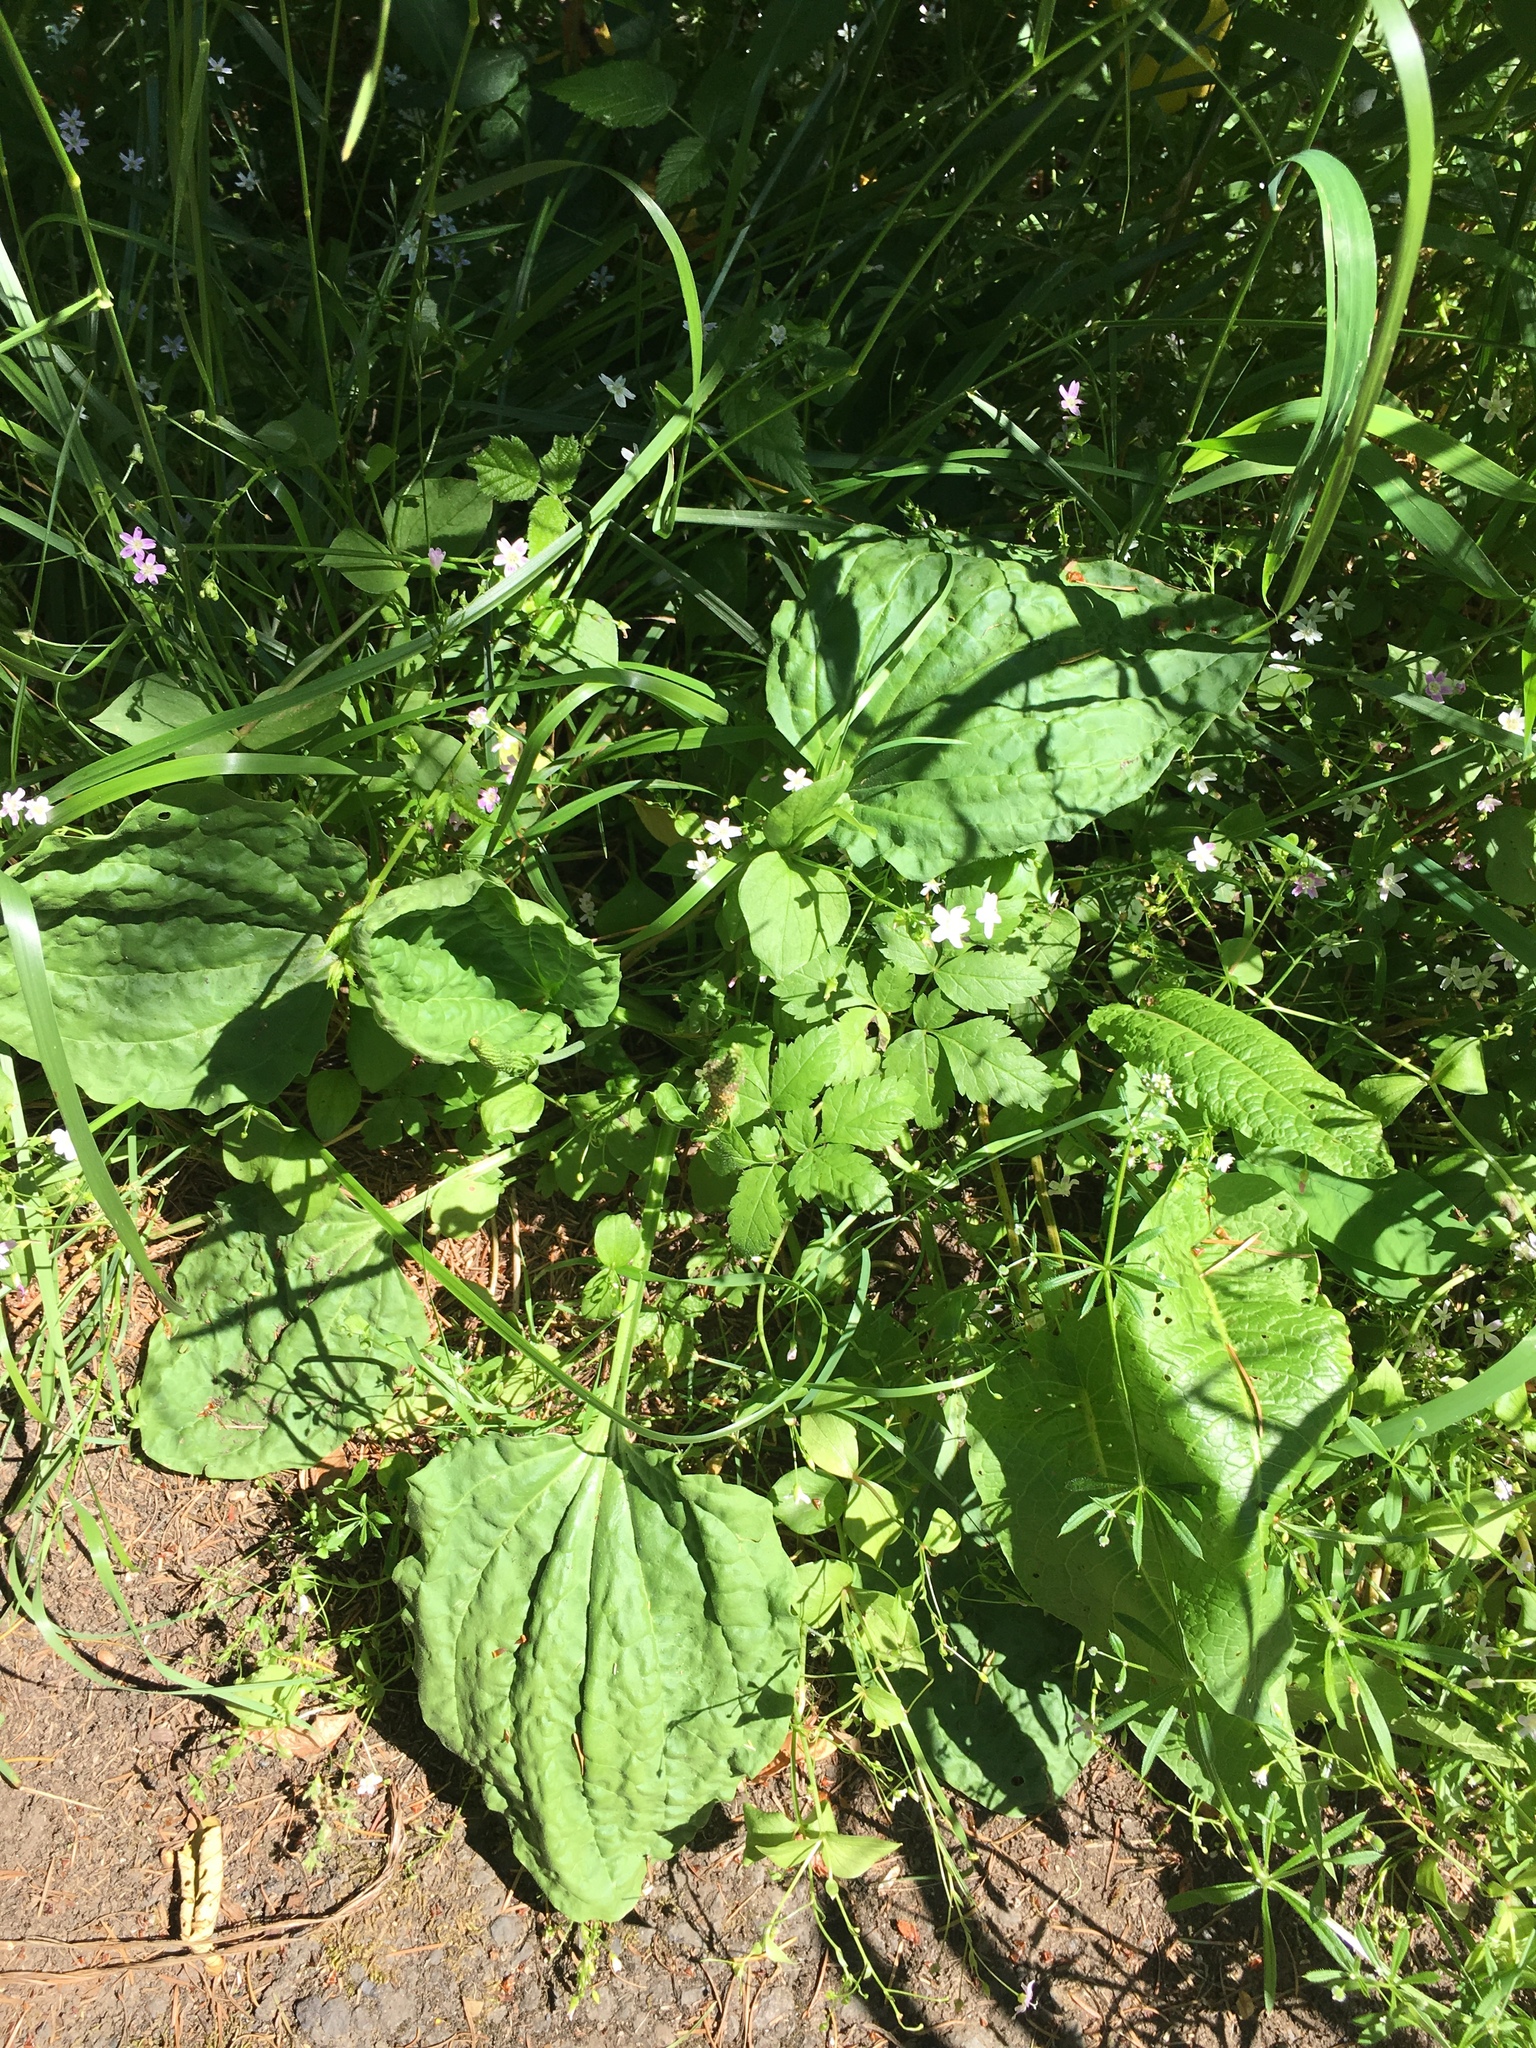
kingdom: Plantae
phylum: Tracheophyta
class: Magnoliopsida
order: Lamiales
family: Plantaginaceae
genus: Plantago
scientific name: Plantago major
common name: Common plantain
